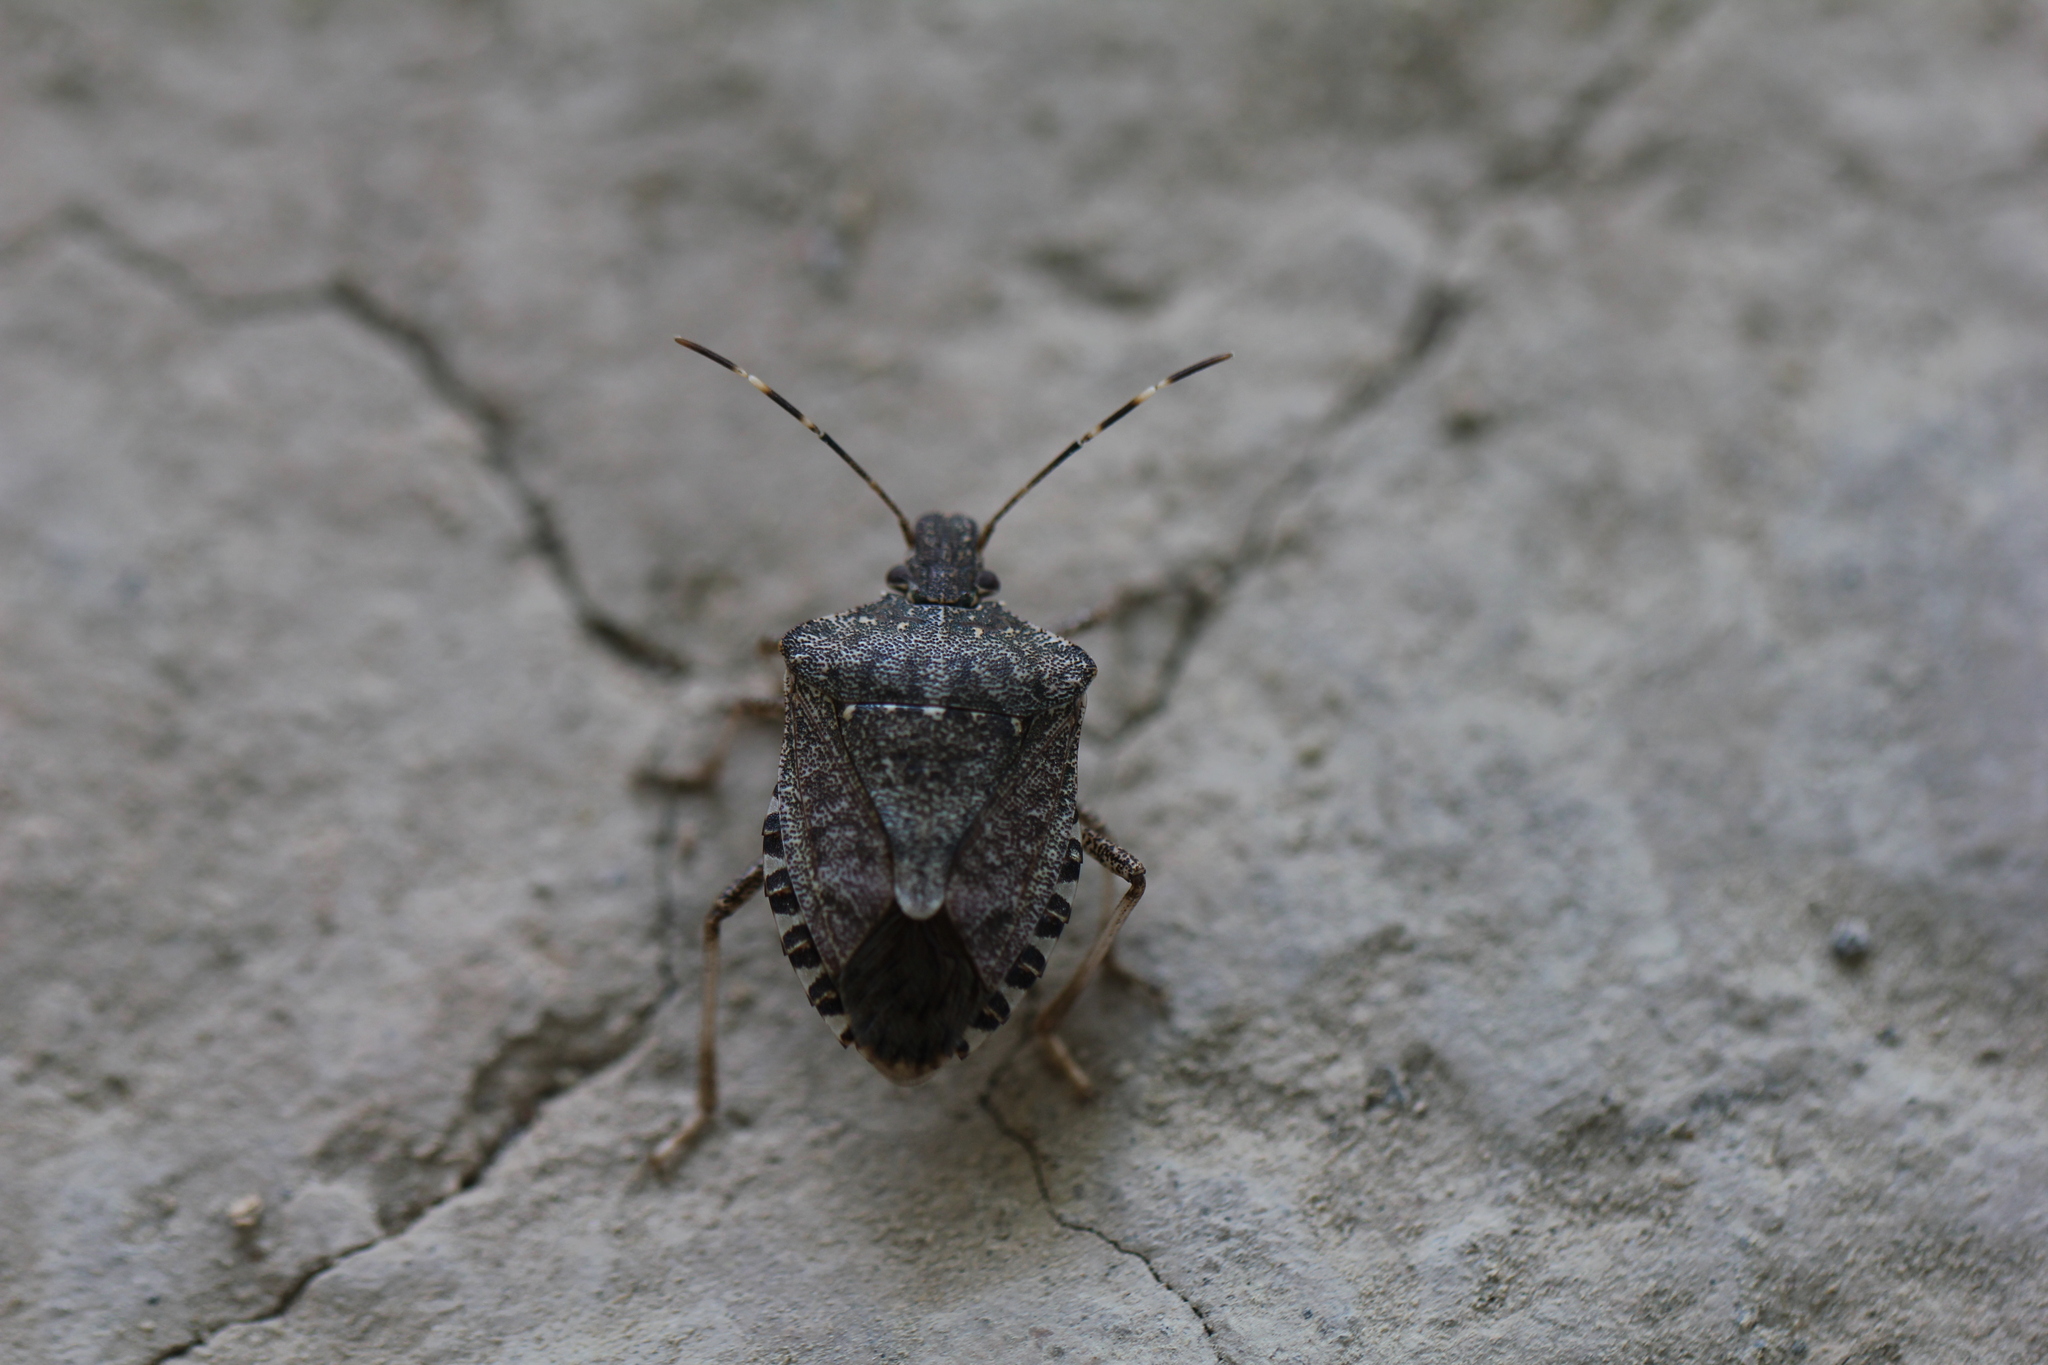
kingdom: Animalia
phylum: Arthropoda
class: Insecta
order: Hemiptera
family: Pentatomidae
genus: Halyomorpha
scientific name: Halyomorpha halys
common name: Brown marmorated stink bug
